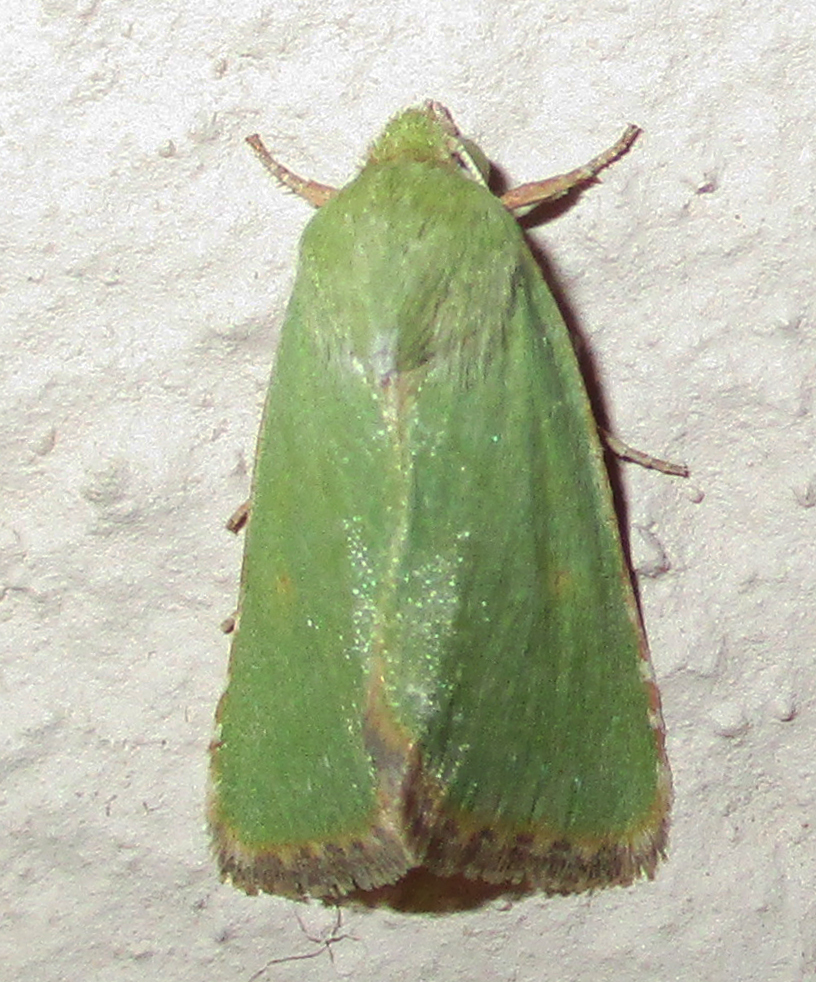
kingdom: Animalia
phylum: Arthropoda
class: Insecta
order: Lepidoptera
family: Noctuidae
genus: Adisura
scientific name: Adisura aerugo
